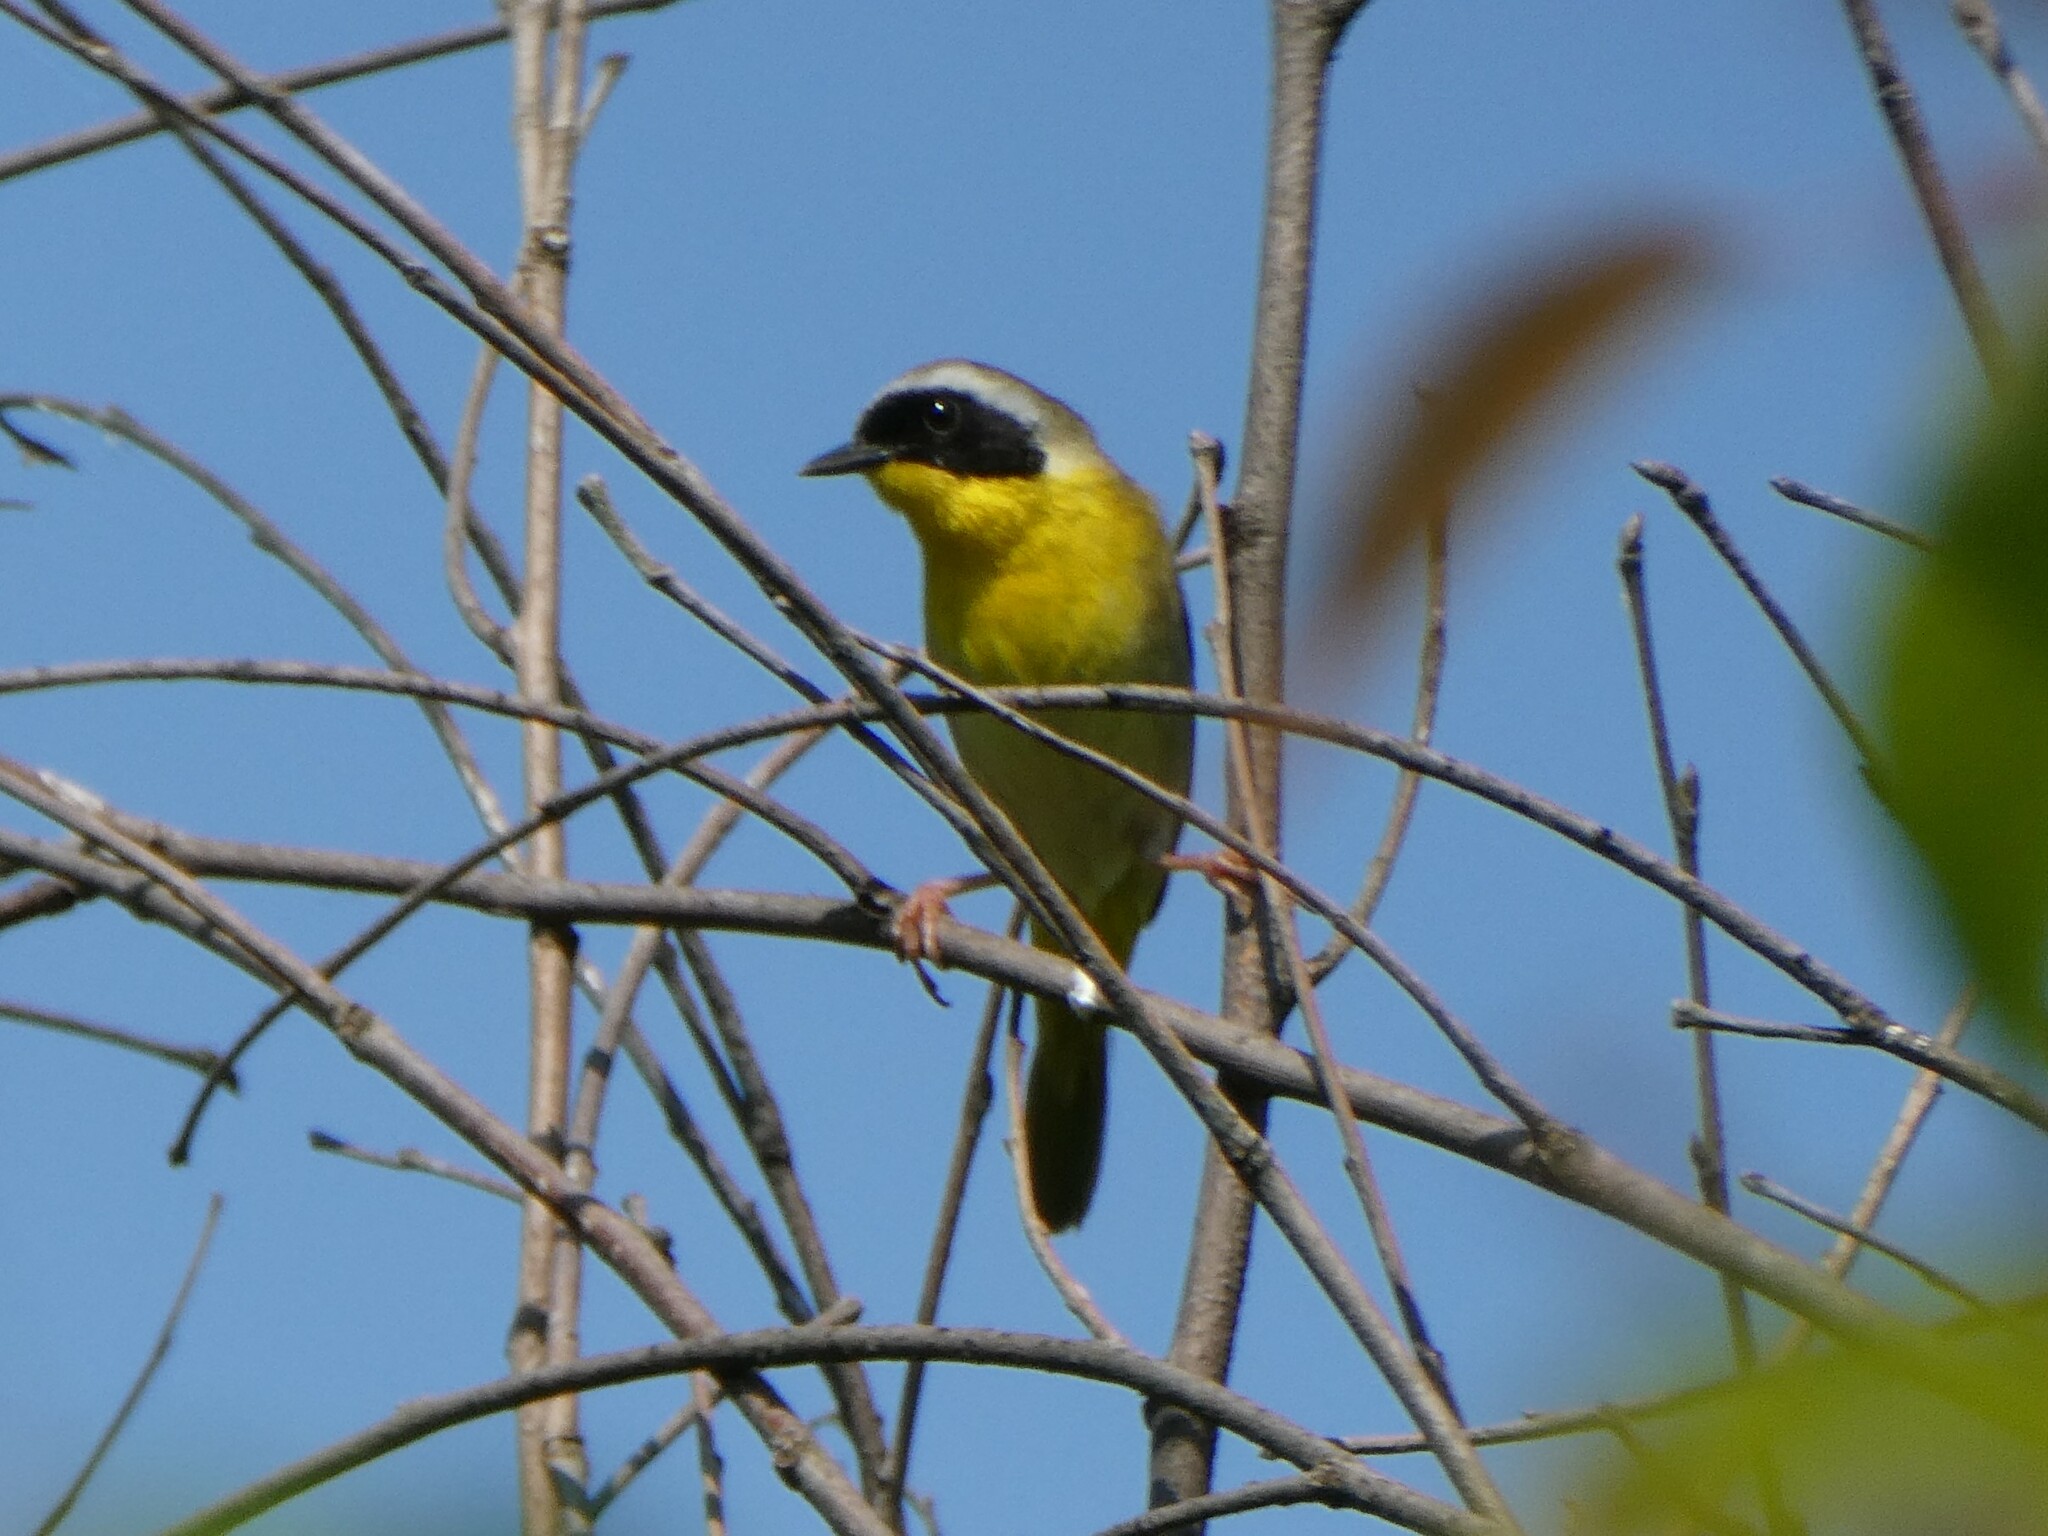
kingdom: Animalia
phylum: Chordata
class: Aves
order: Passeriformes
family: Parulidae
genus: Geothlypis
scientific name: Geothlypis trichas
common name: Common yellowthroat
